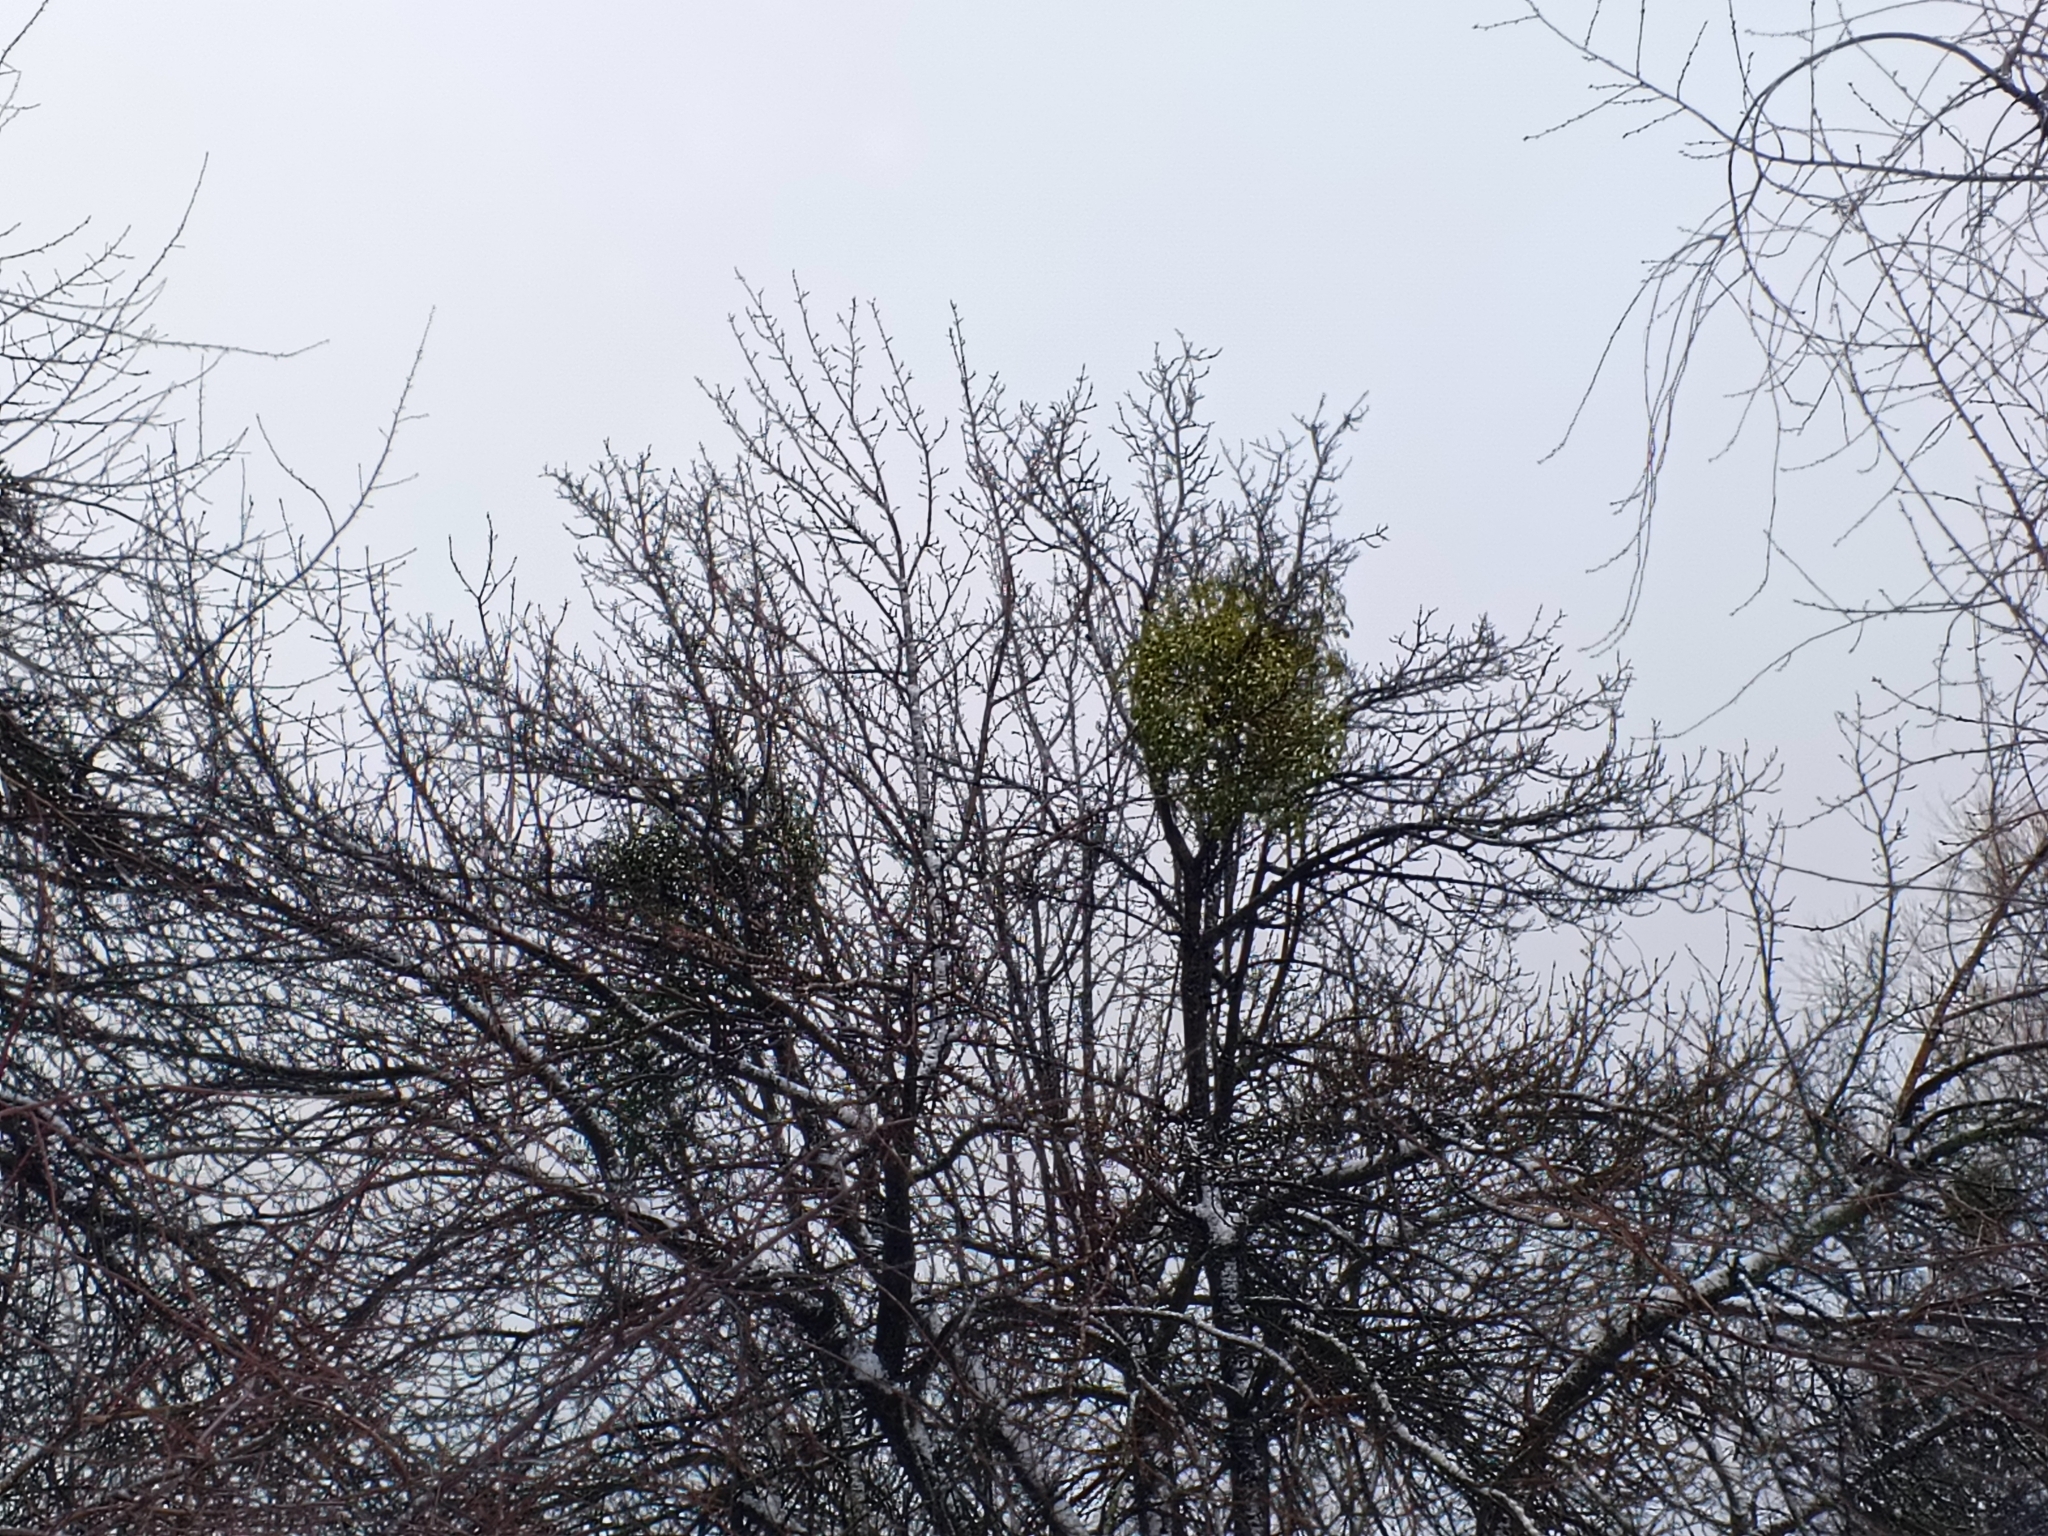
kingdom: Plantae
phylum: Tracheophyta
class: Magnoliopsida
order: Santalales
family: Viscaceae
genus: Viscum
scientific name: Viscum album
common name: Mistletoe
